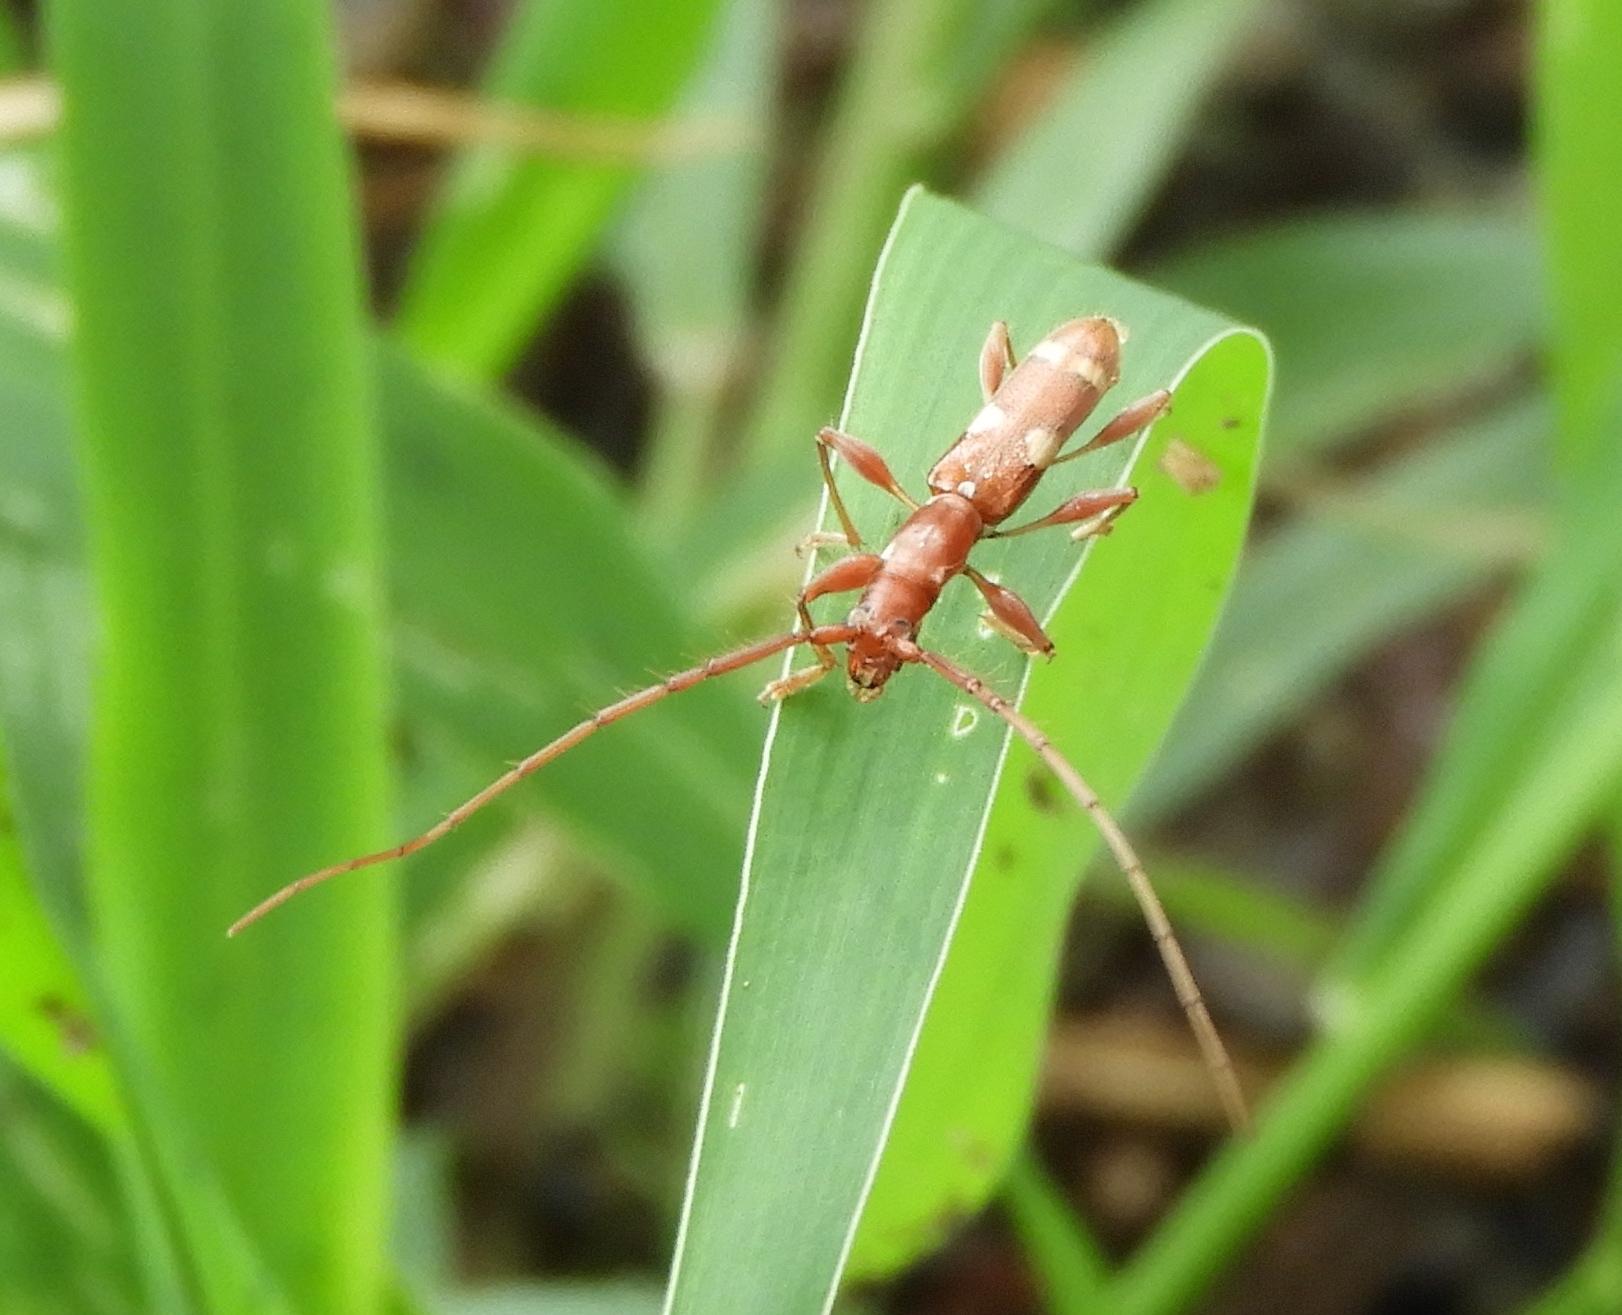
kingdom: Animalia
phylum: Arthropoda
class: Insecta
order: Coleoptera
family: Cerambycidae
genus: Neocompsa
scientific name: Neocompsa alacris
